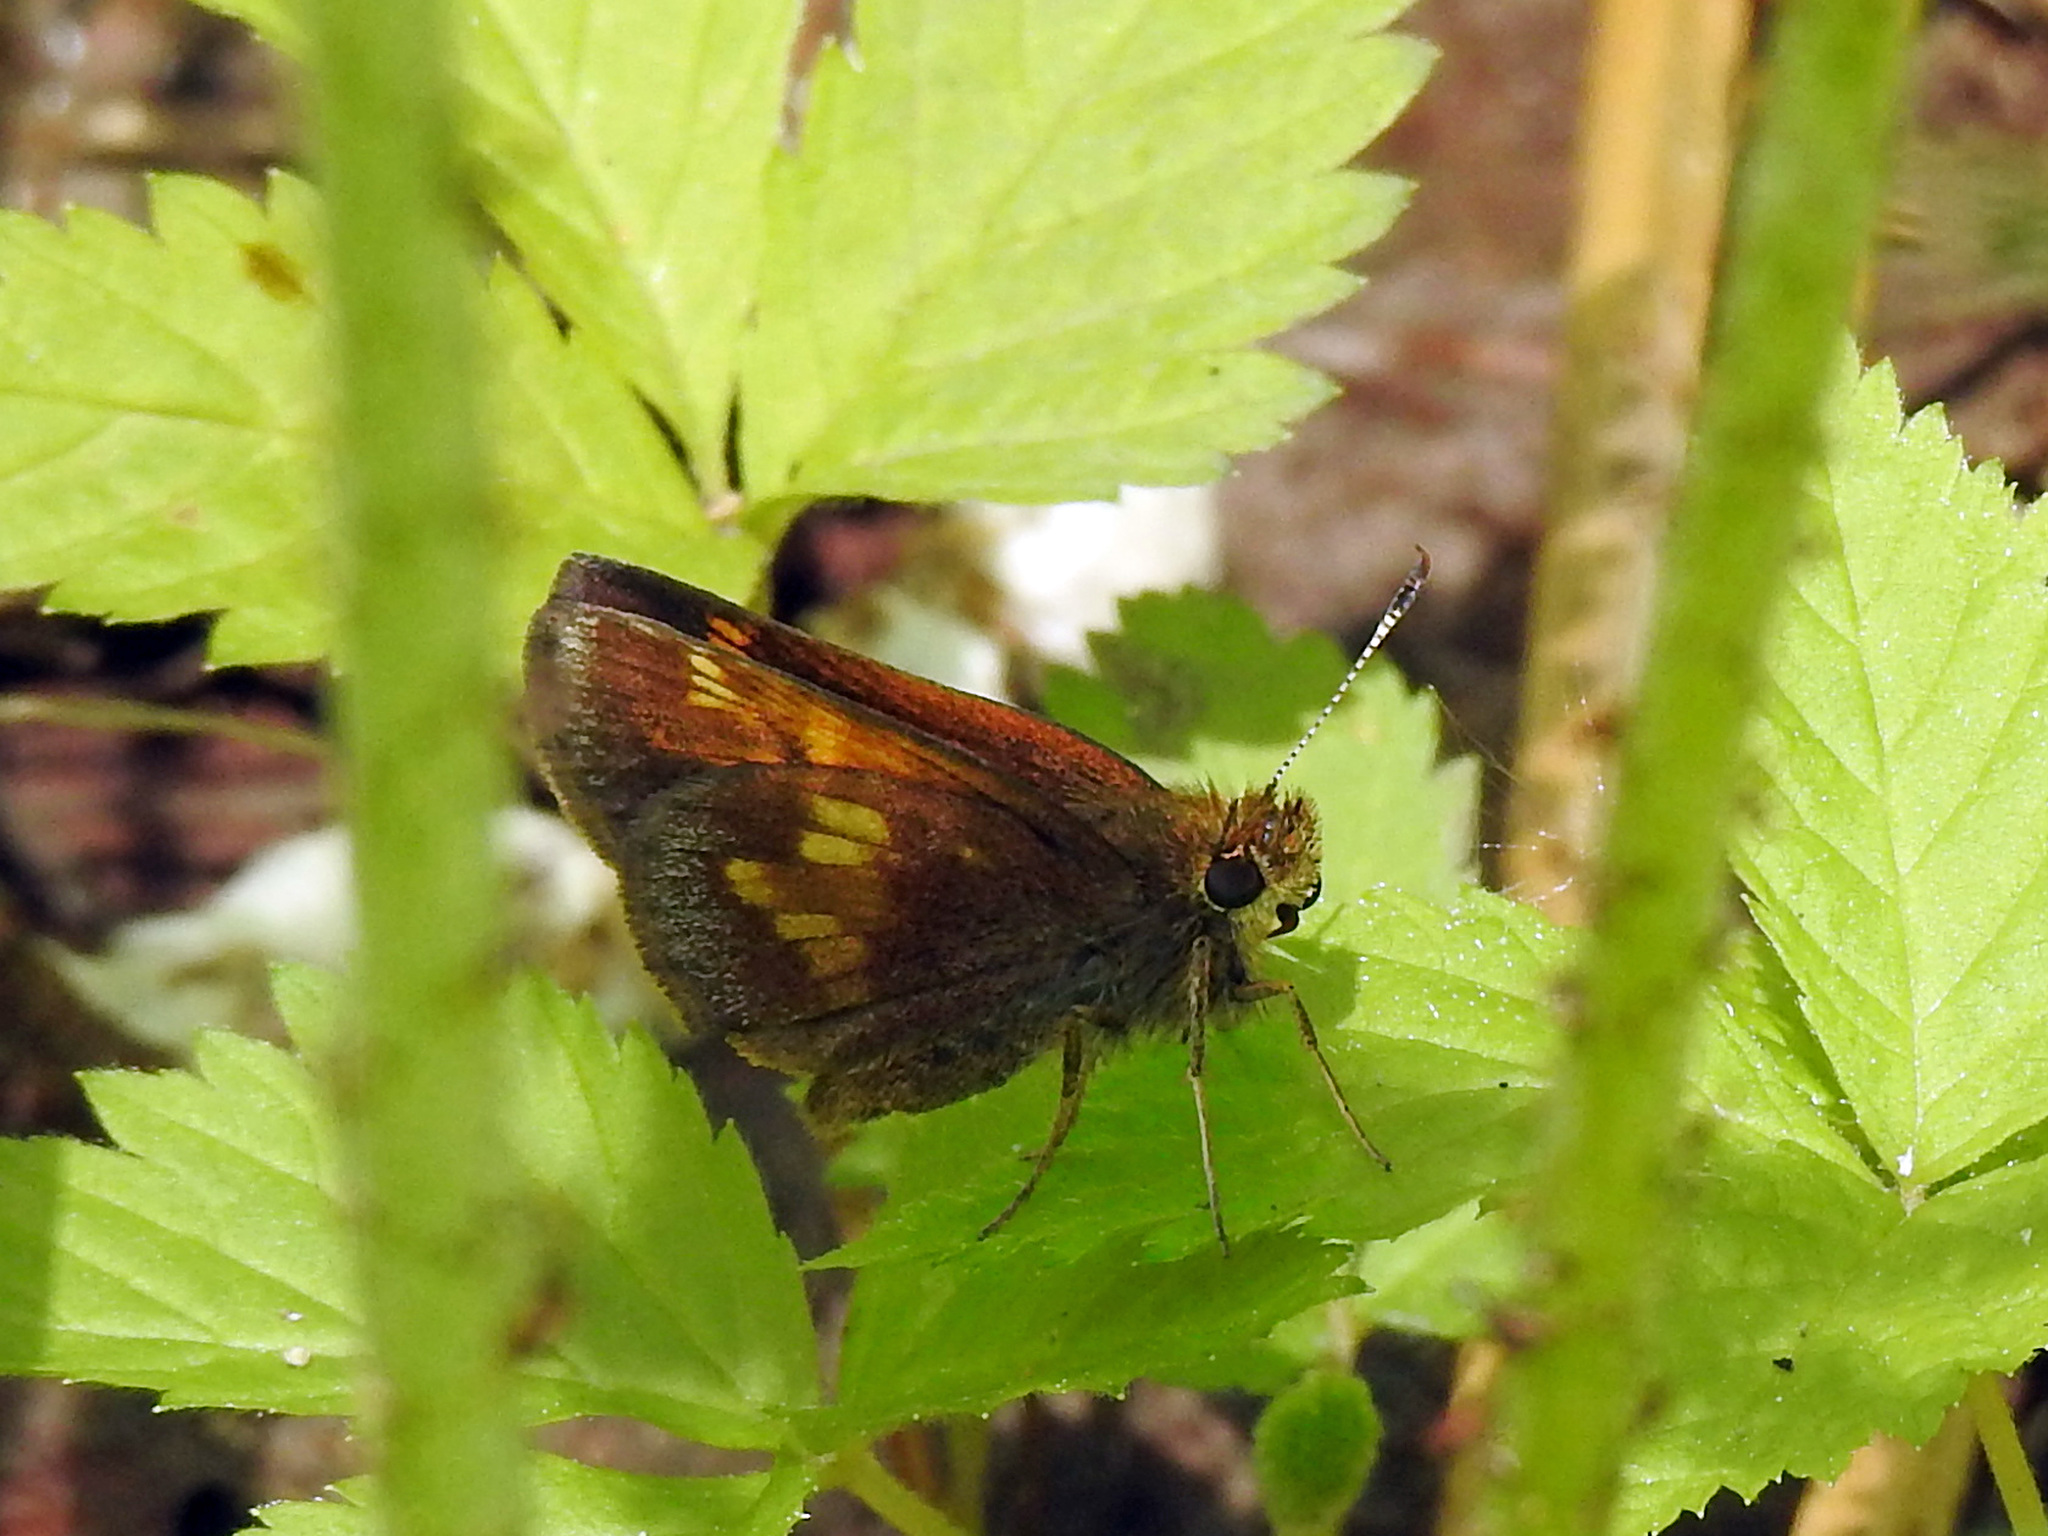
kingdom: Animalia
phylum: Arthropoda
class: Insecta
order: Lepidoptera
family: Hesperiidae
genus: Lon
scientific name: Lon hobomok
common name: Hobomok skipper
